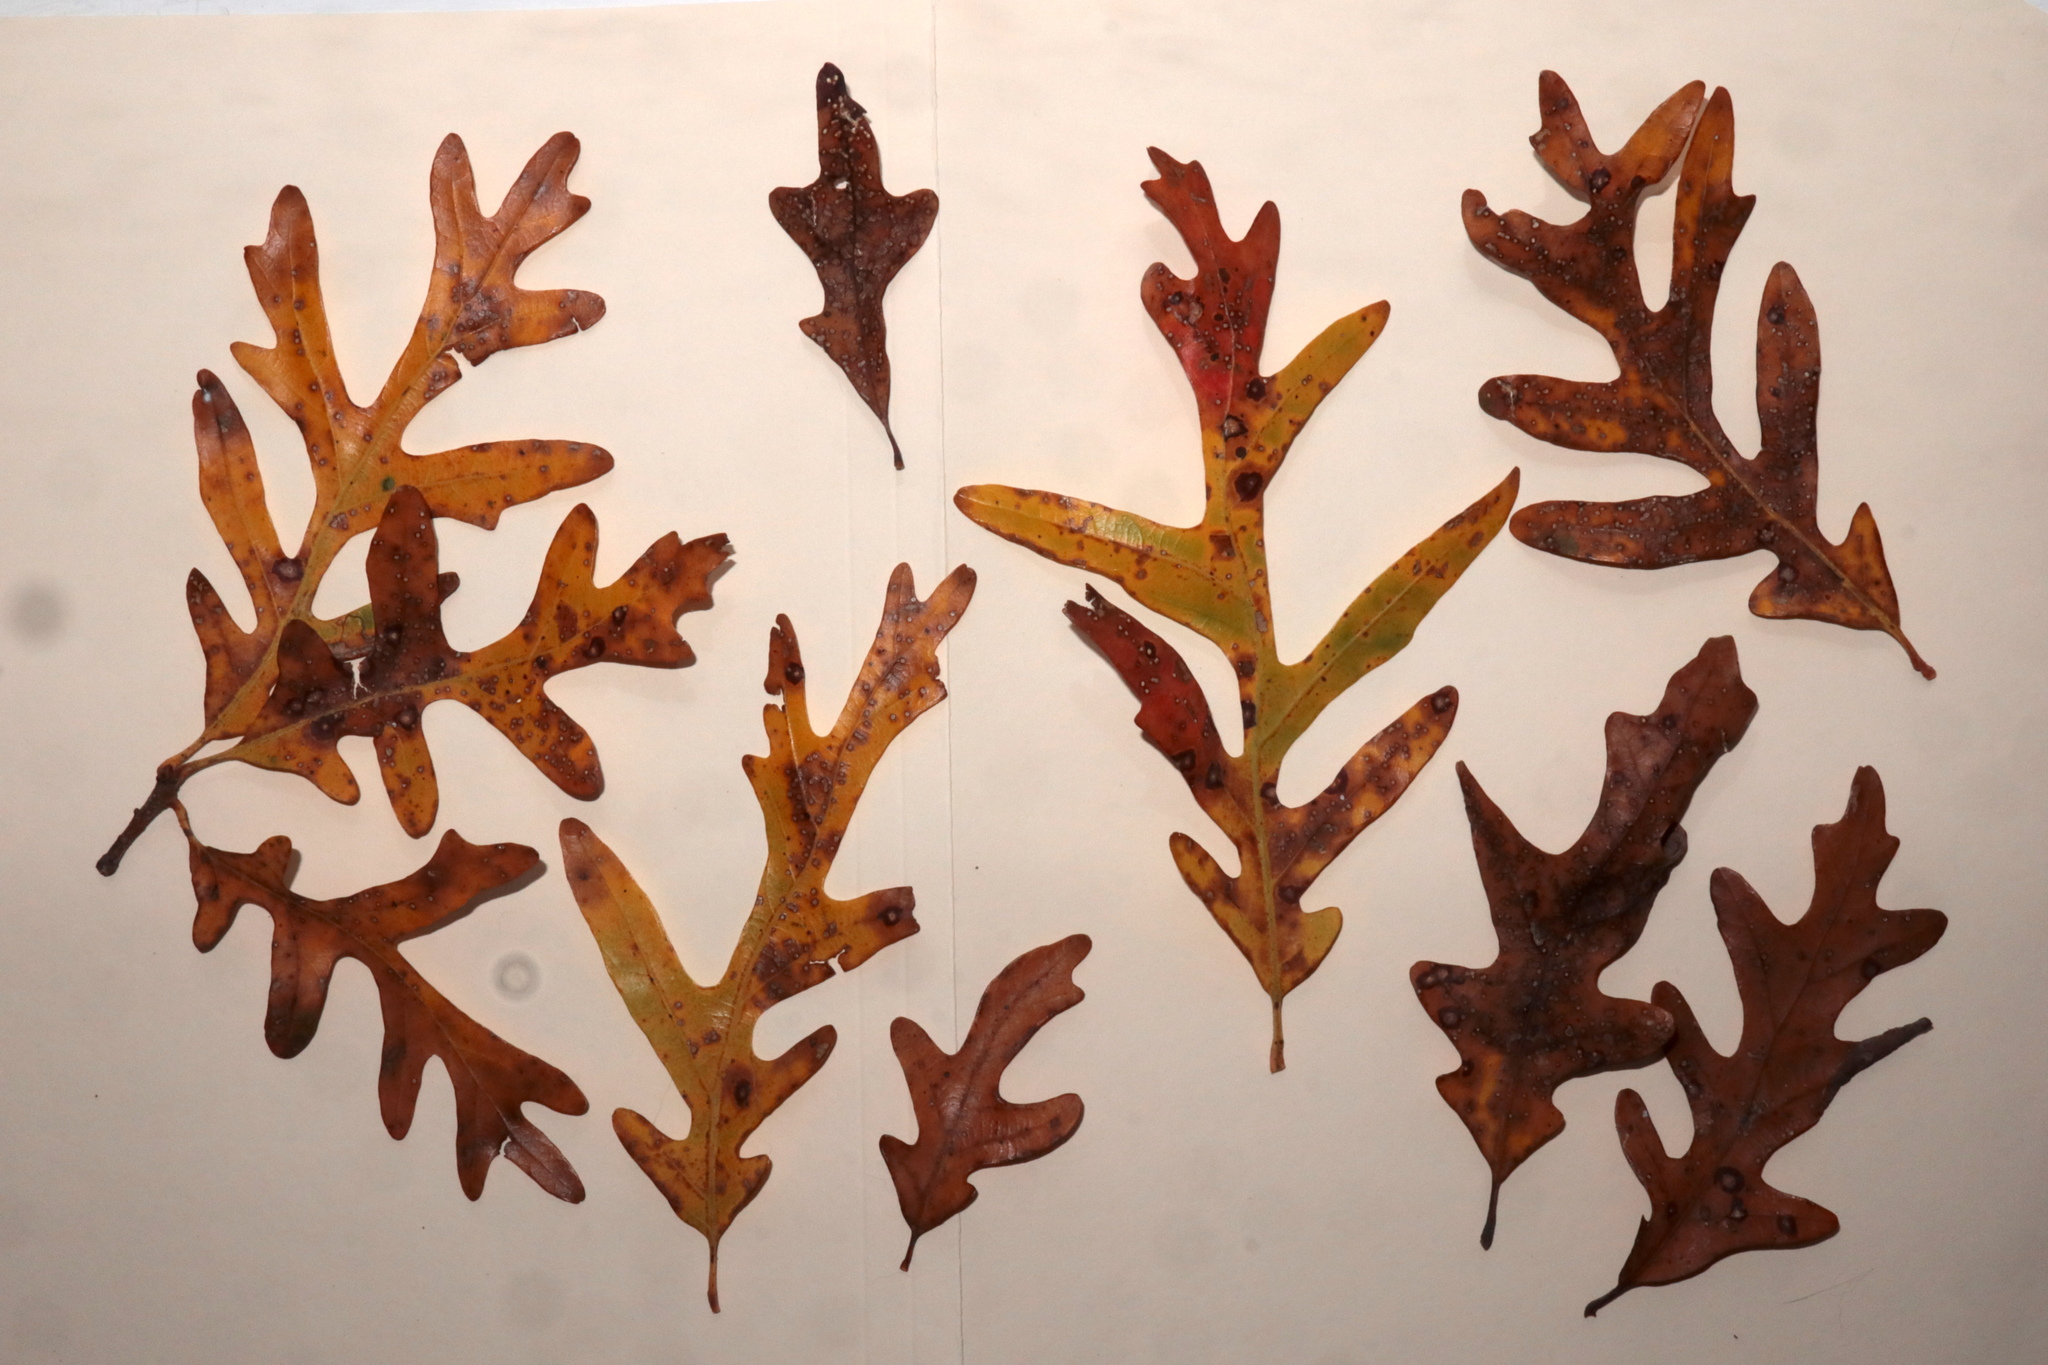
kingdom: Plantae
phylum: Tracheophyta
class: Magnoliopsida
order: Fagales
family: Fagaceae
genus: Quercus
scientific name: Quercus alba
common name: White oak
